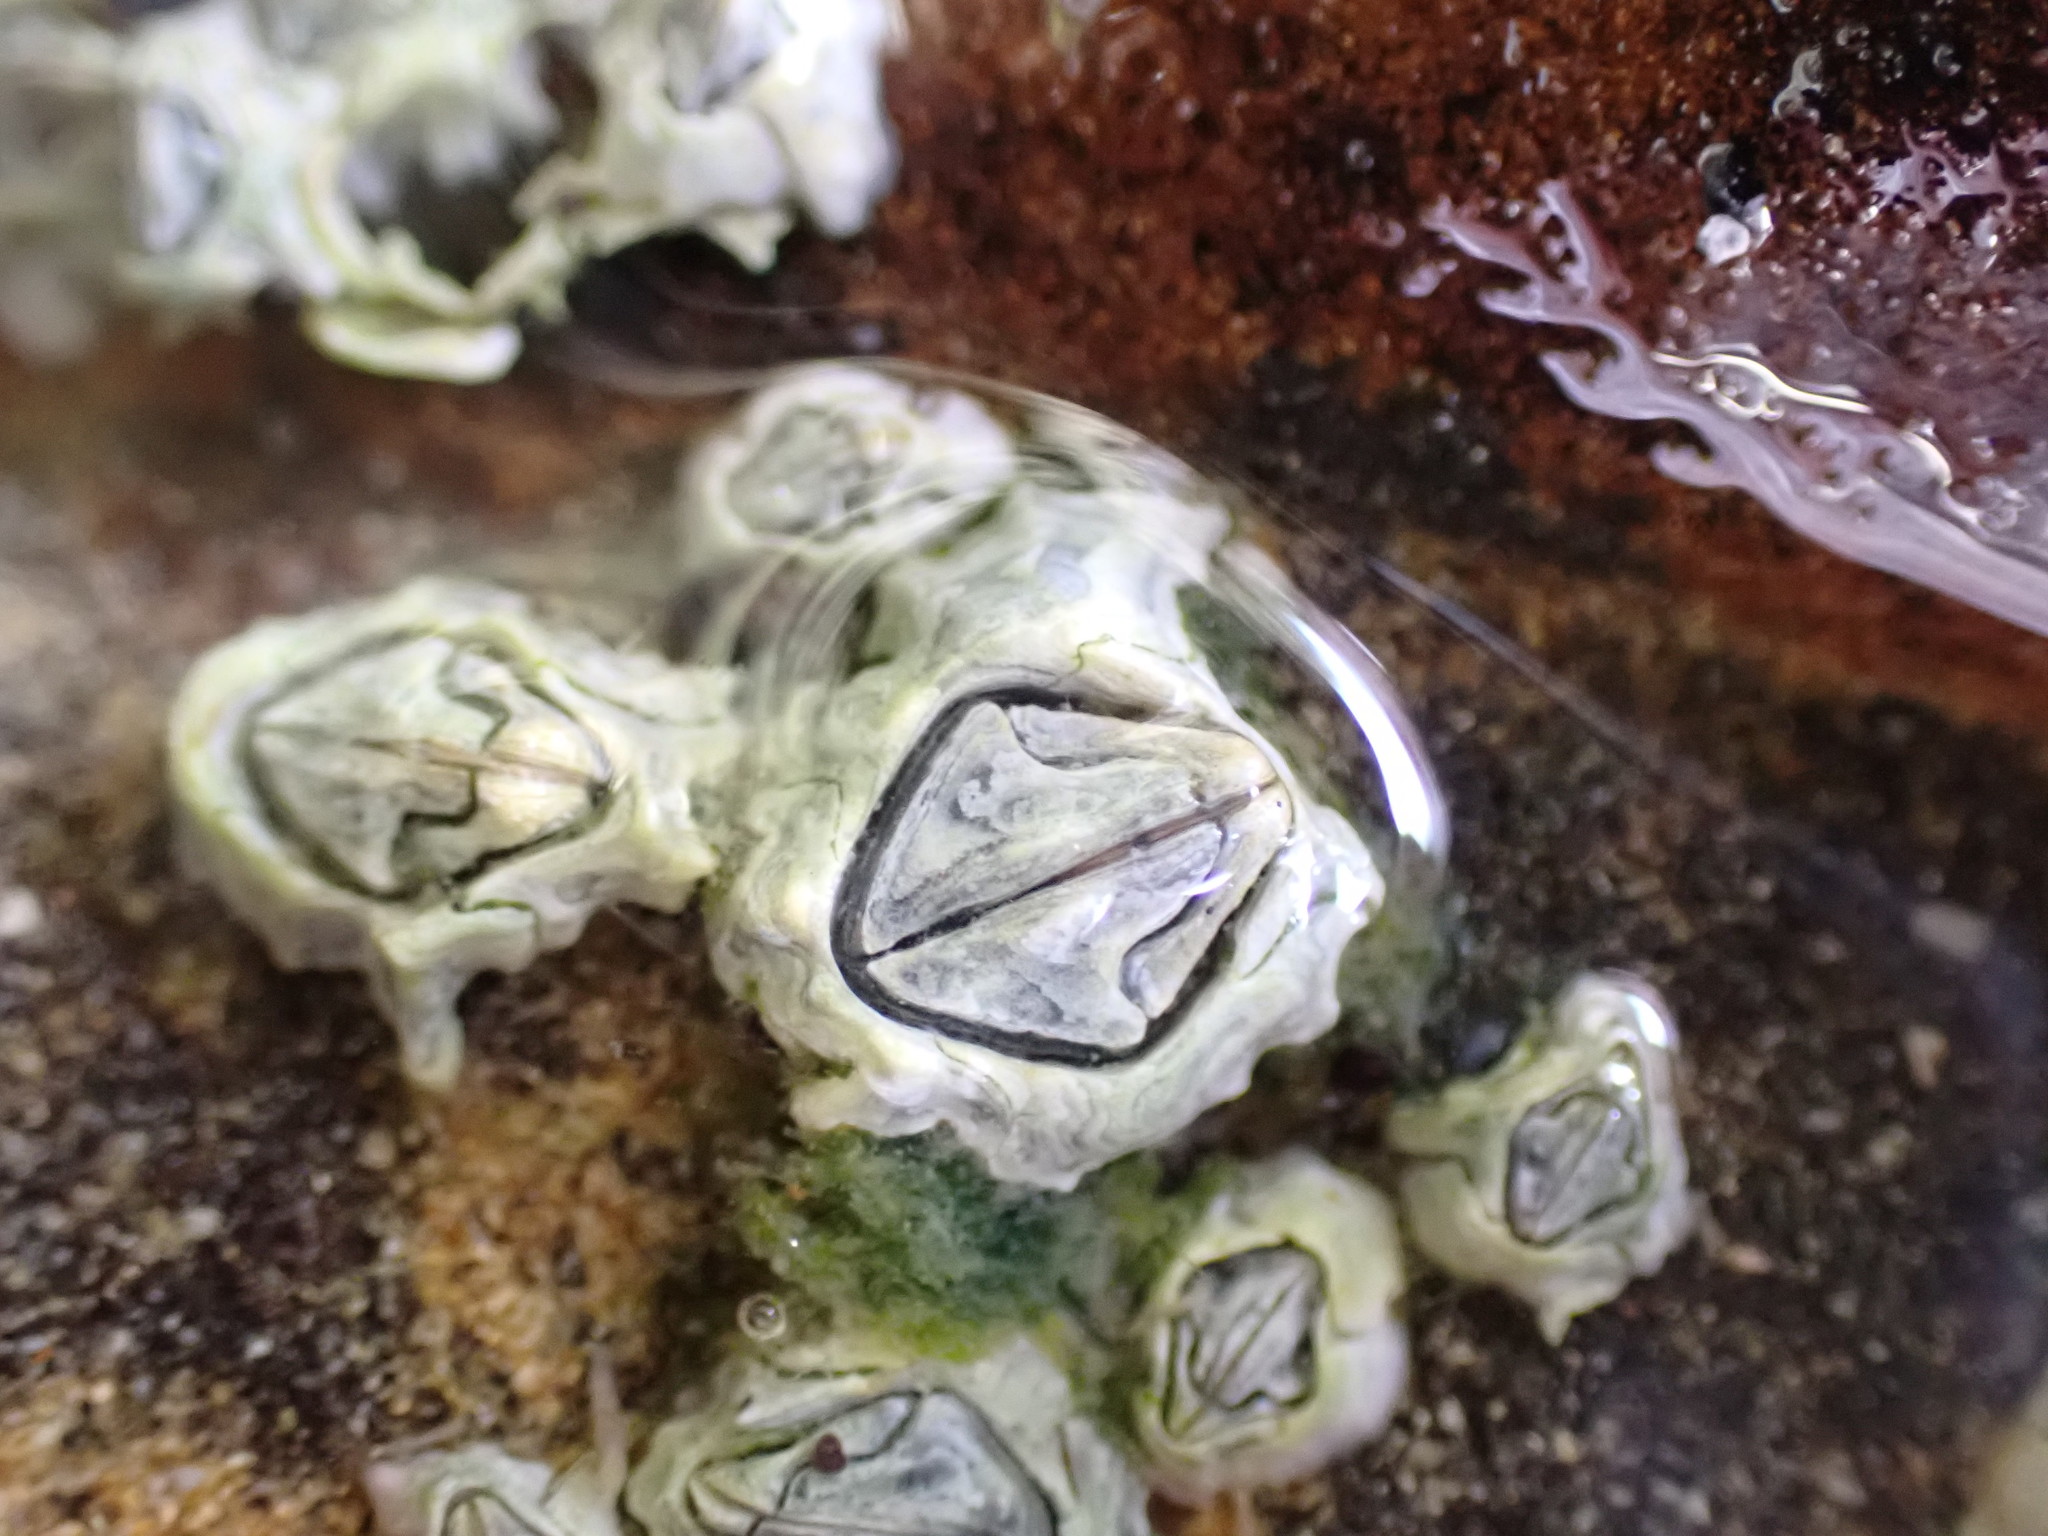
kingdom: Animalia
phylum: Arthropoda
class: Maxillopoda
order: Sessilia
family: Chthamalidae
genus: Chamaesipho
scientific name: Chamaesipho columna
